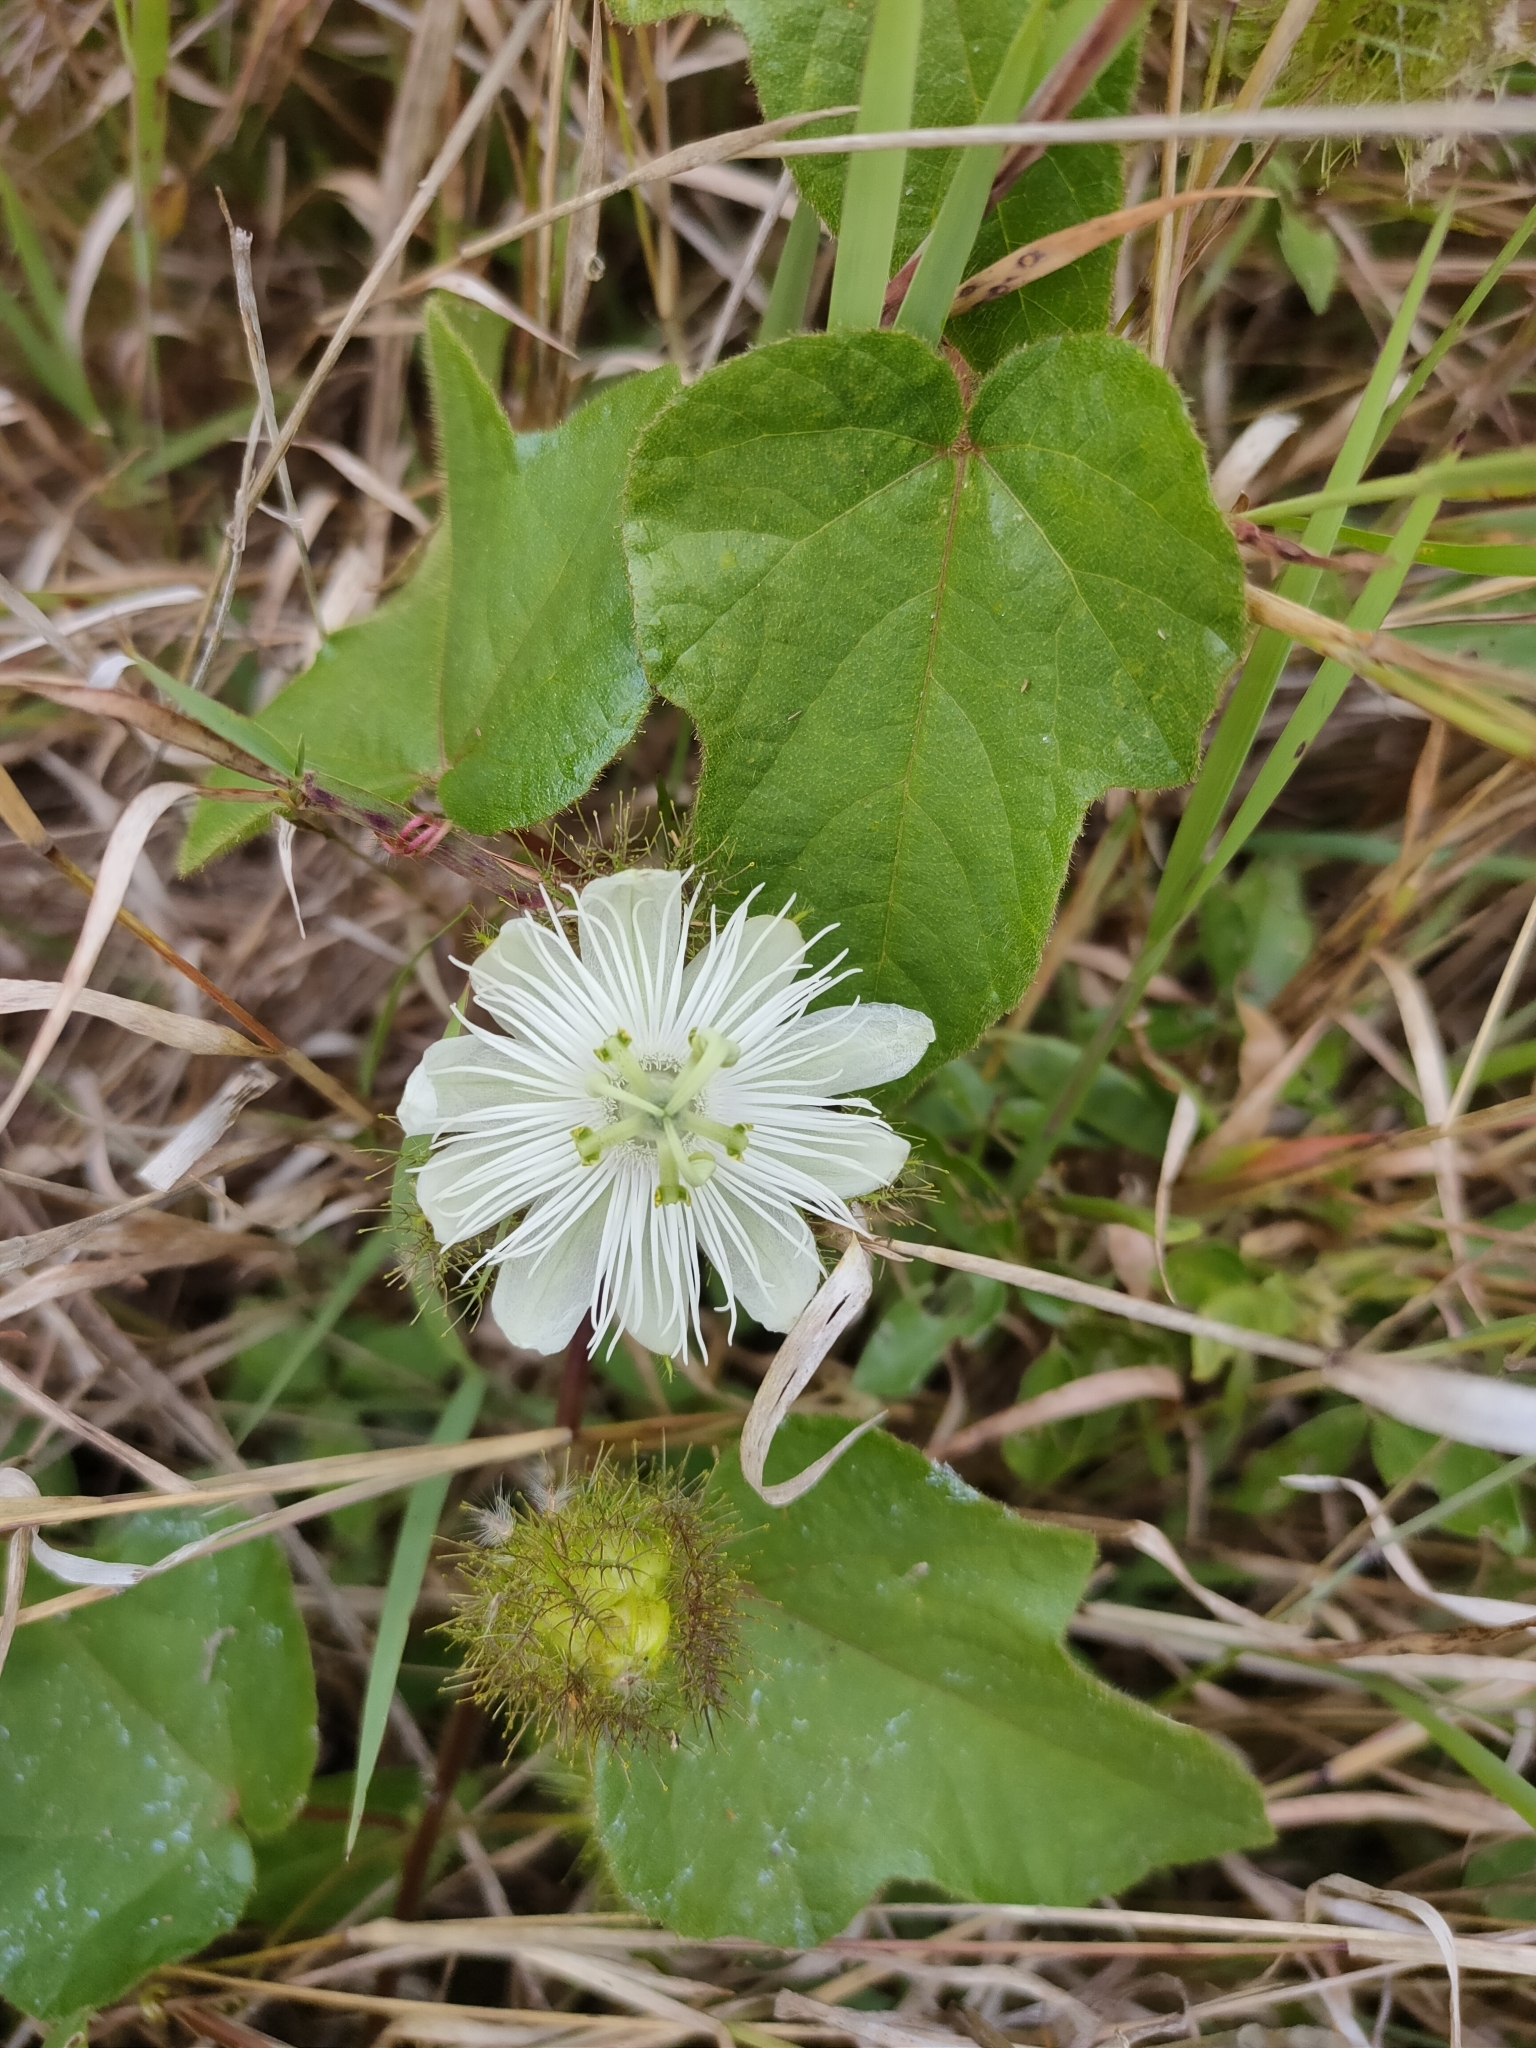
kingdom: Plantae
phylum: Tracheophyta
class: Magnoliopsida
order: Malpighiales
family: Passifloraceae
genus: Passiflora
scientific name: Passiflora foetida
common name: Fetid passionflower
